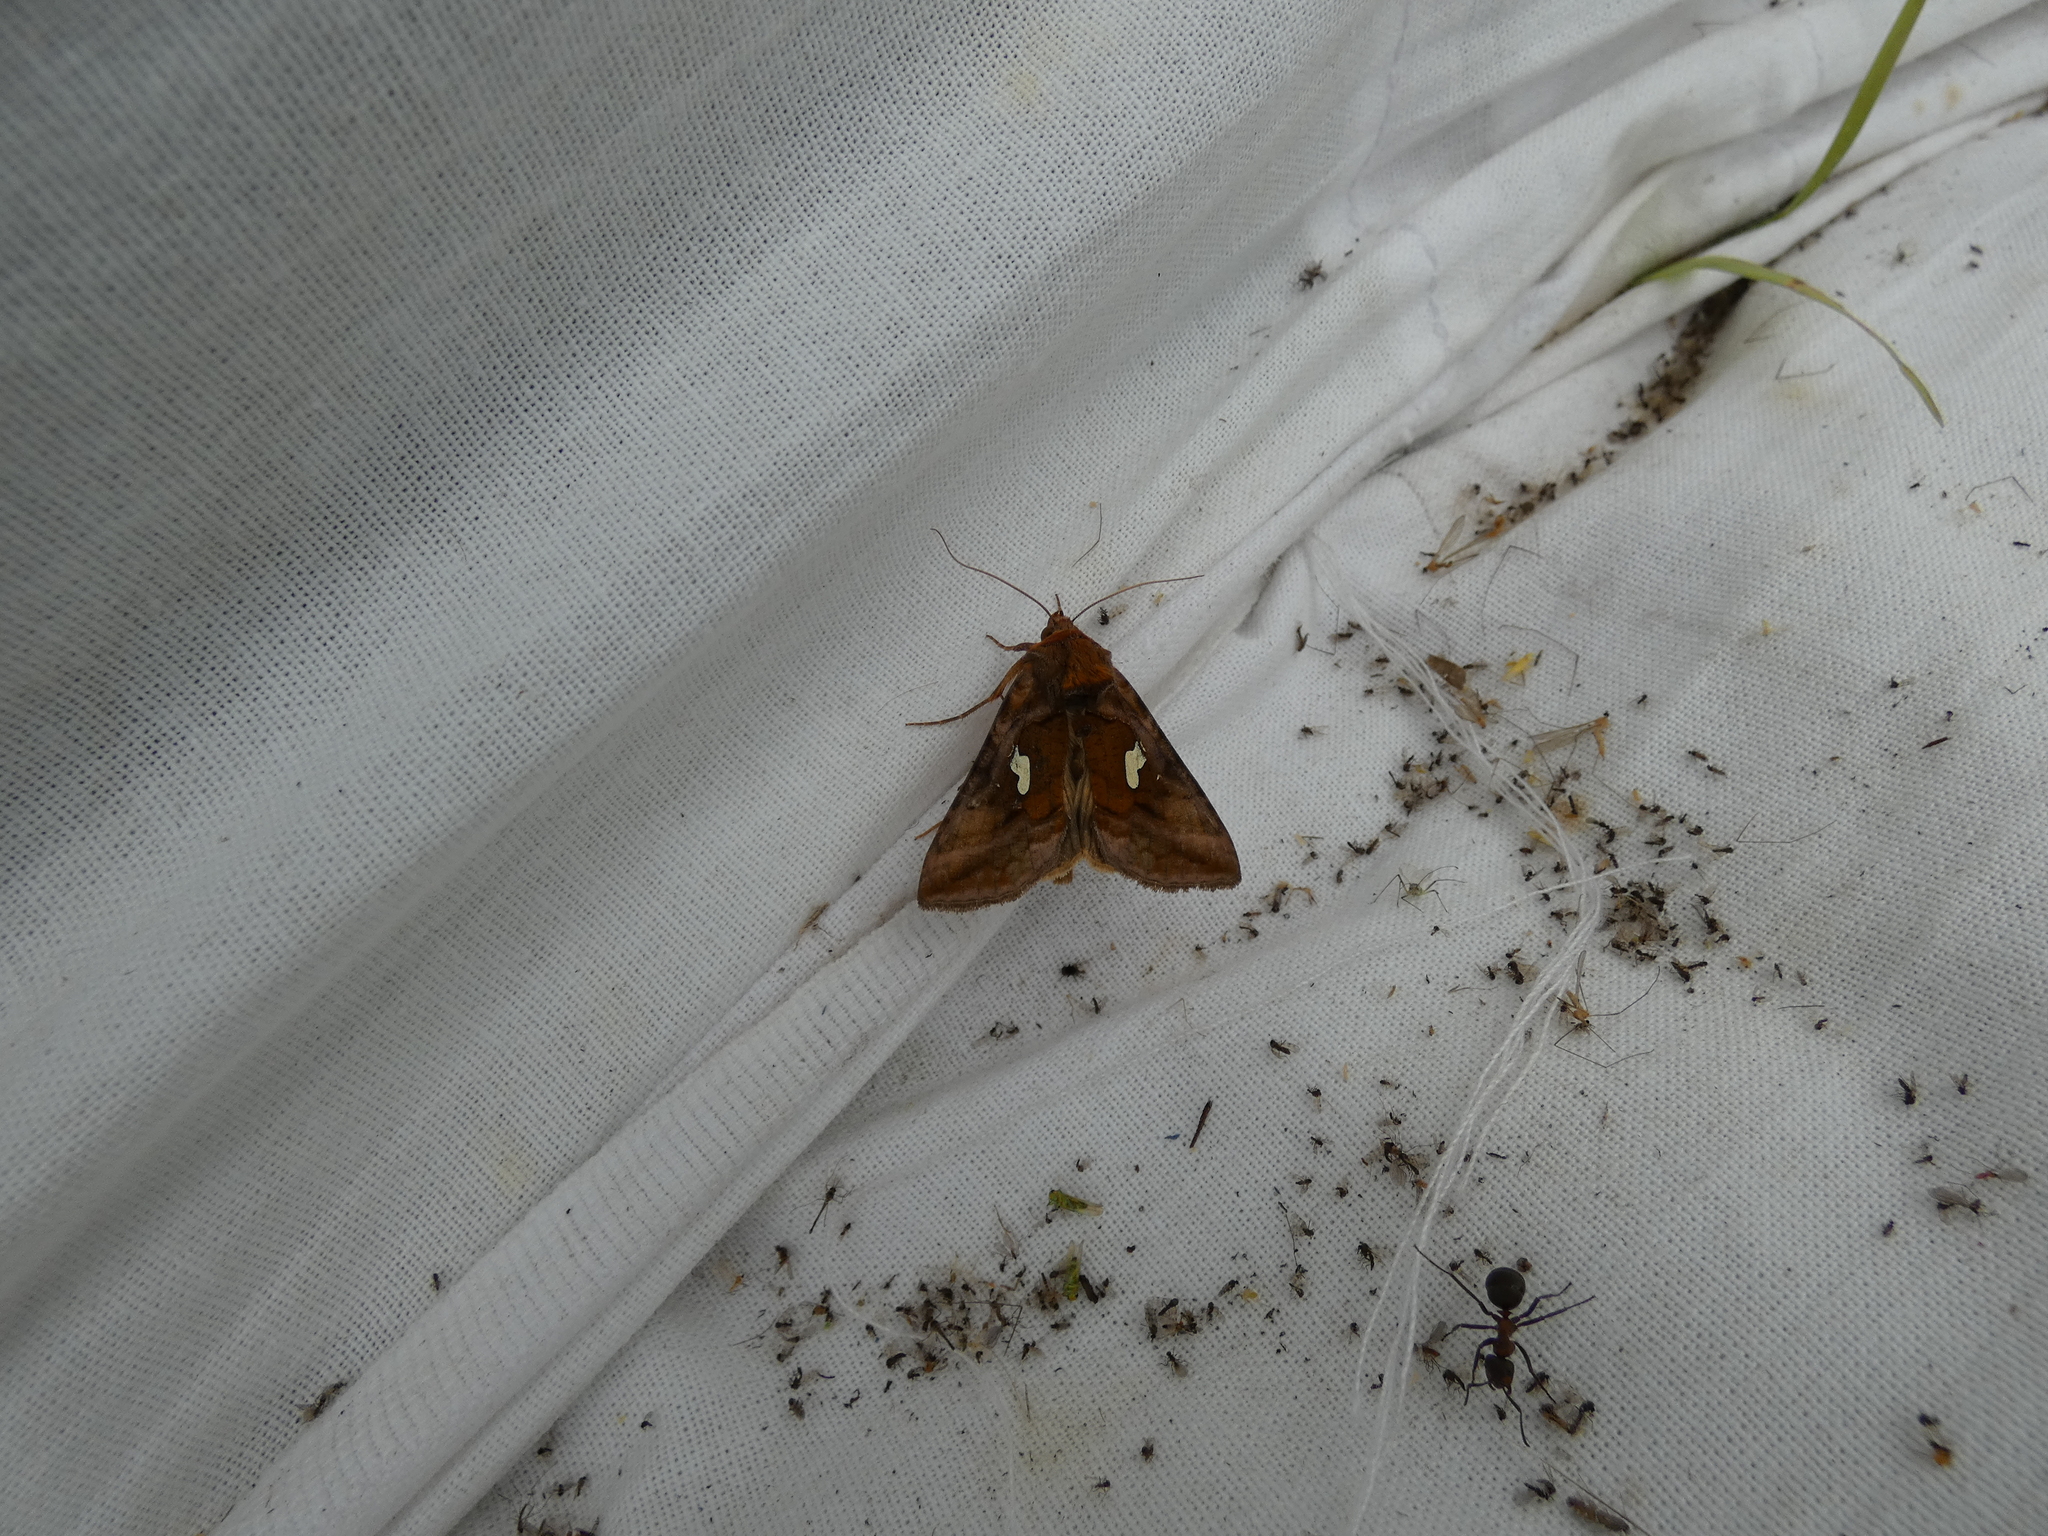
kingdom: Animalia
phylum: Arthropoda
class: Insecta
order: Lepidoptera
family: Noctuidae
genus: Autographa
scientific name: Autographa excelsa
